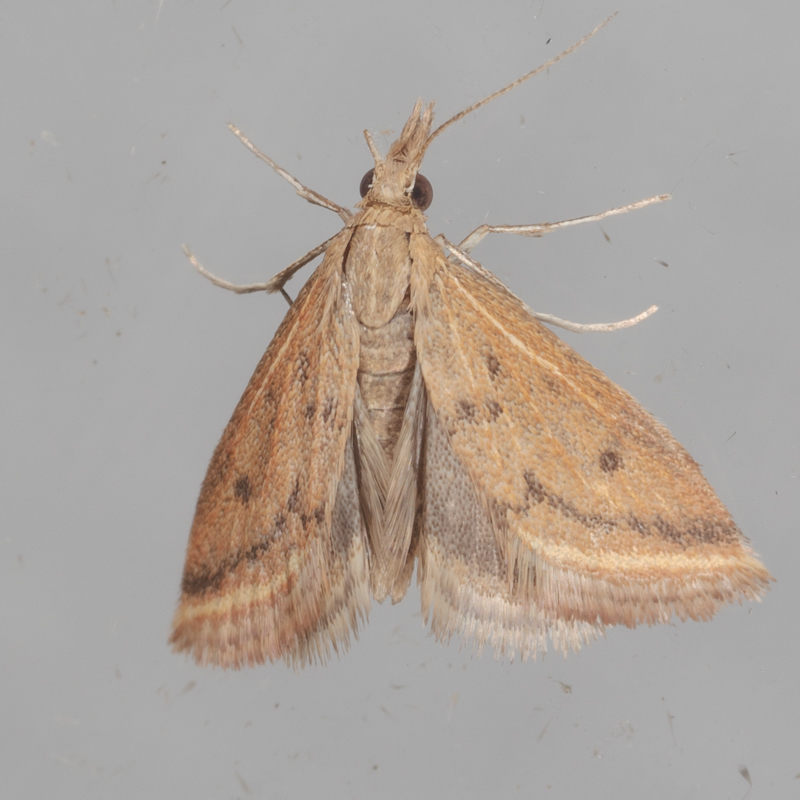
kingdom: Animalia
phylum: Arthropoda
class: Insecta
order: Lepidoptera
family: Crambidae
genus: Microtheoris
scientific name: Microtheoris ophionalis
